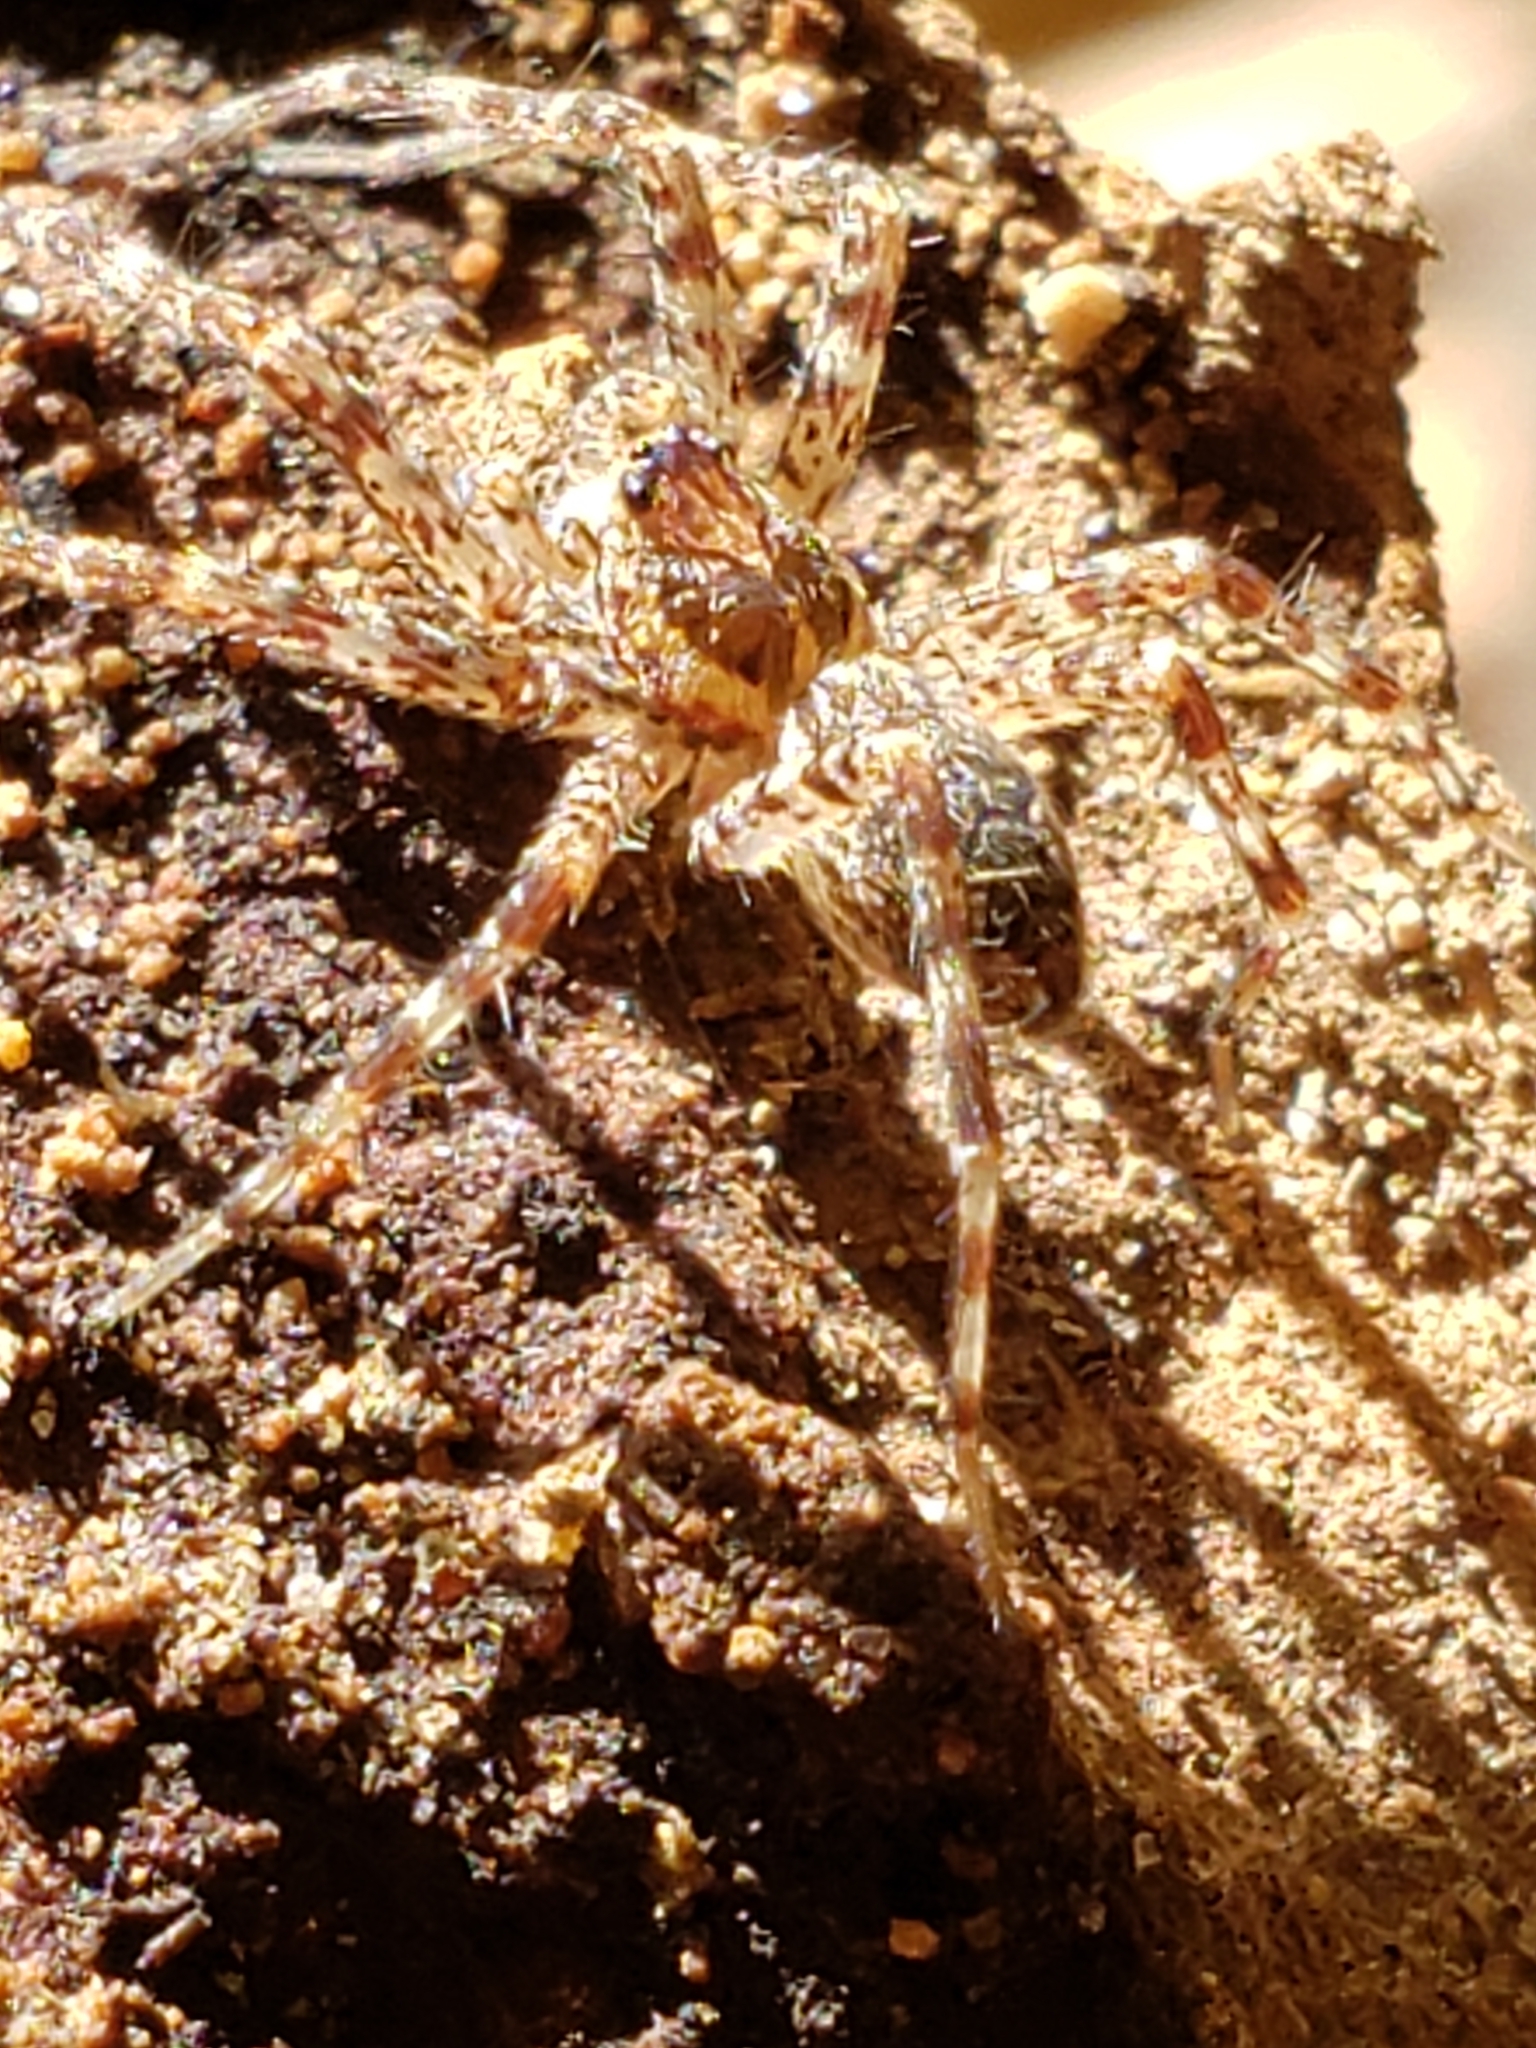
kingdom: Animalia
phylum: Arthropoda
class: Arachnida
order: Araneae
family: Pisauridae
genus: Dolomedes
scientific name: Dolomedes tenebrosus
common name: Dark fishing spider
